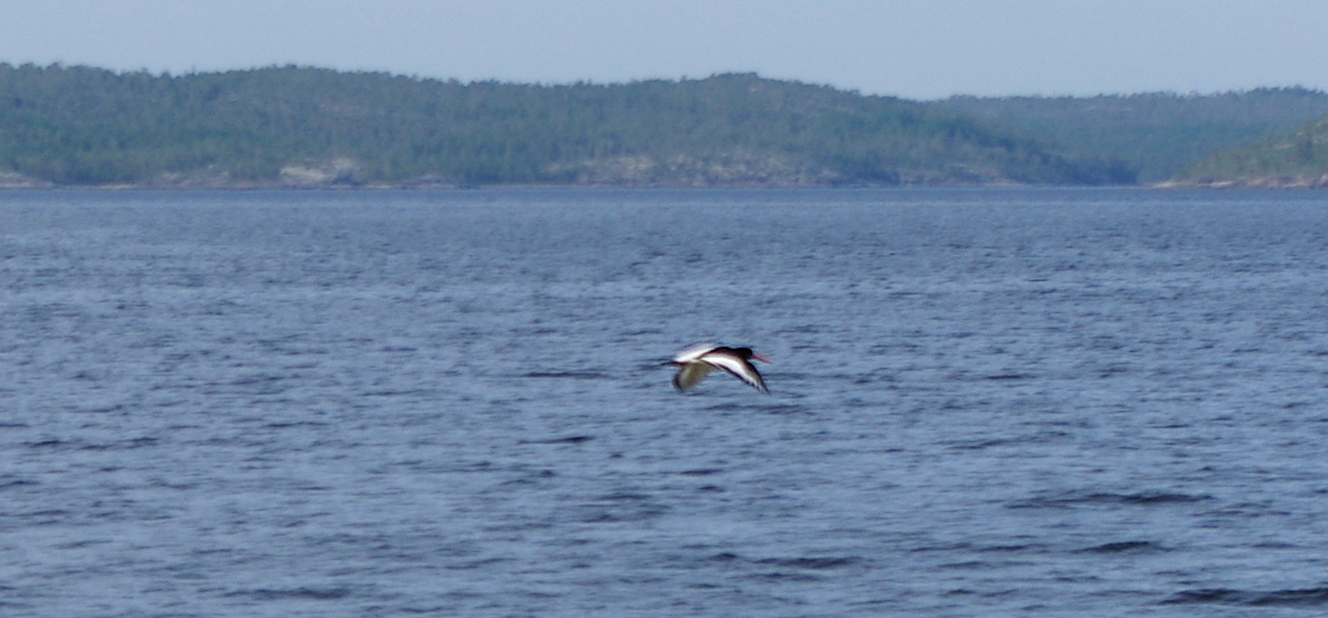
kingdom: Animalia
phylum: Chordata
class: Aves
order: Charadriiformes
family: Haematopodidae
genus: Haematopus
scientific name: Haematopus ostralegus
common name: Eurasian oystercatcher
